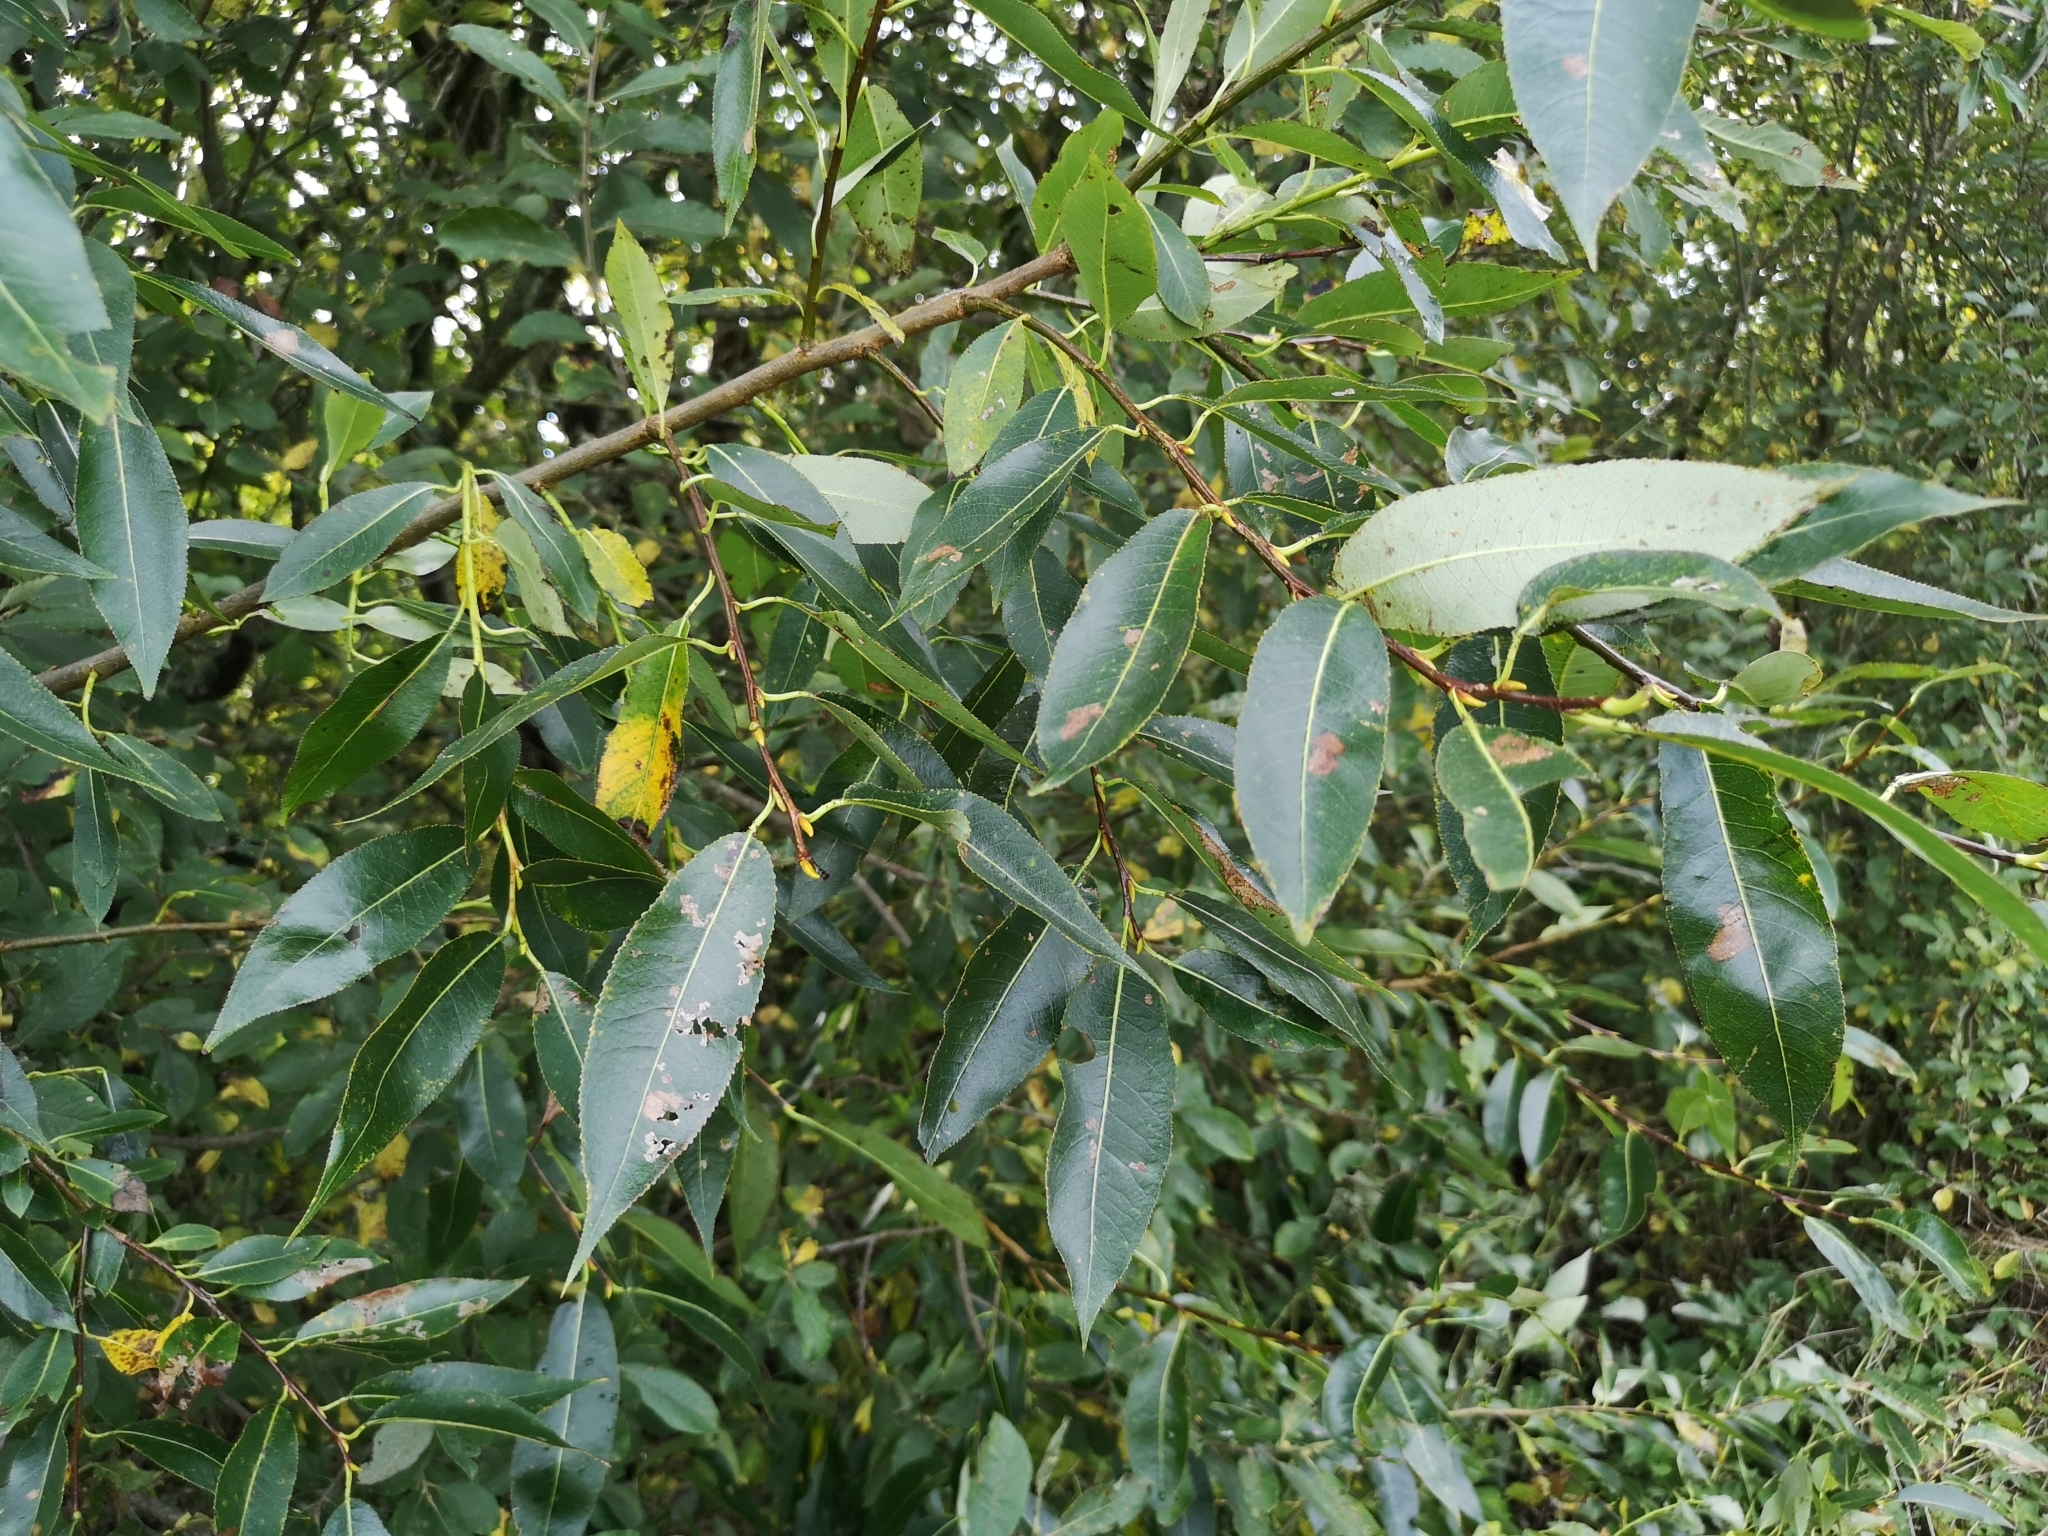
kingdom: Plantae
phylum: Tracheophyta
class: Magnoliopsida
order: Malpighiales
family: Salicaceae
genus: Salix
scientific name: Salix pentandra
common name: Bay willow
